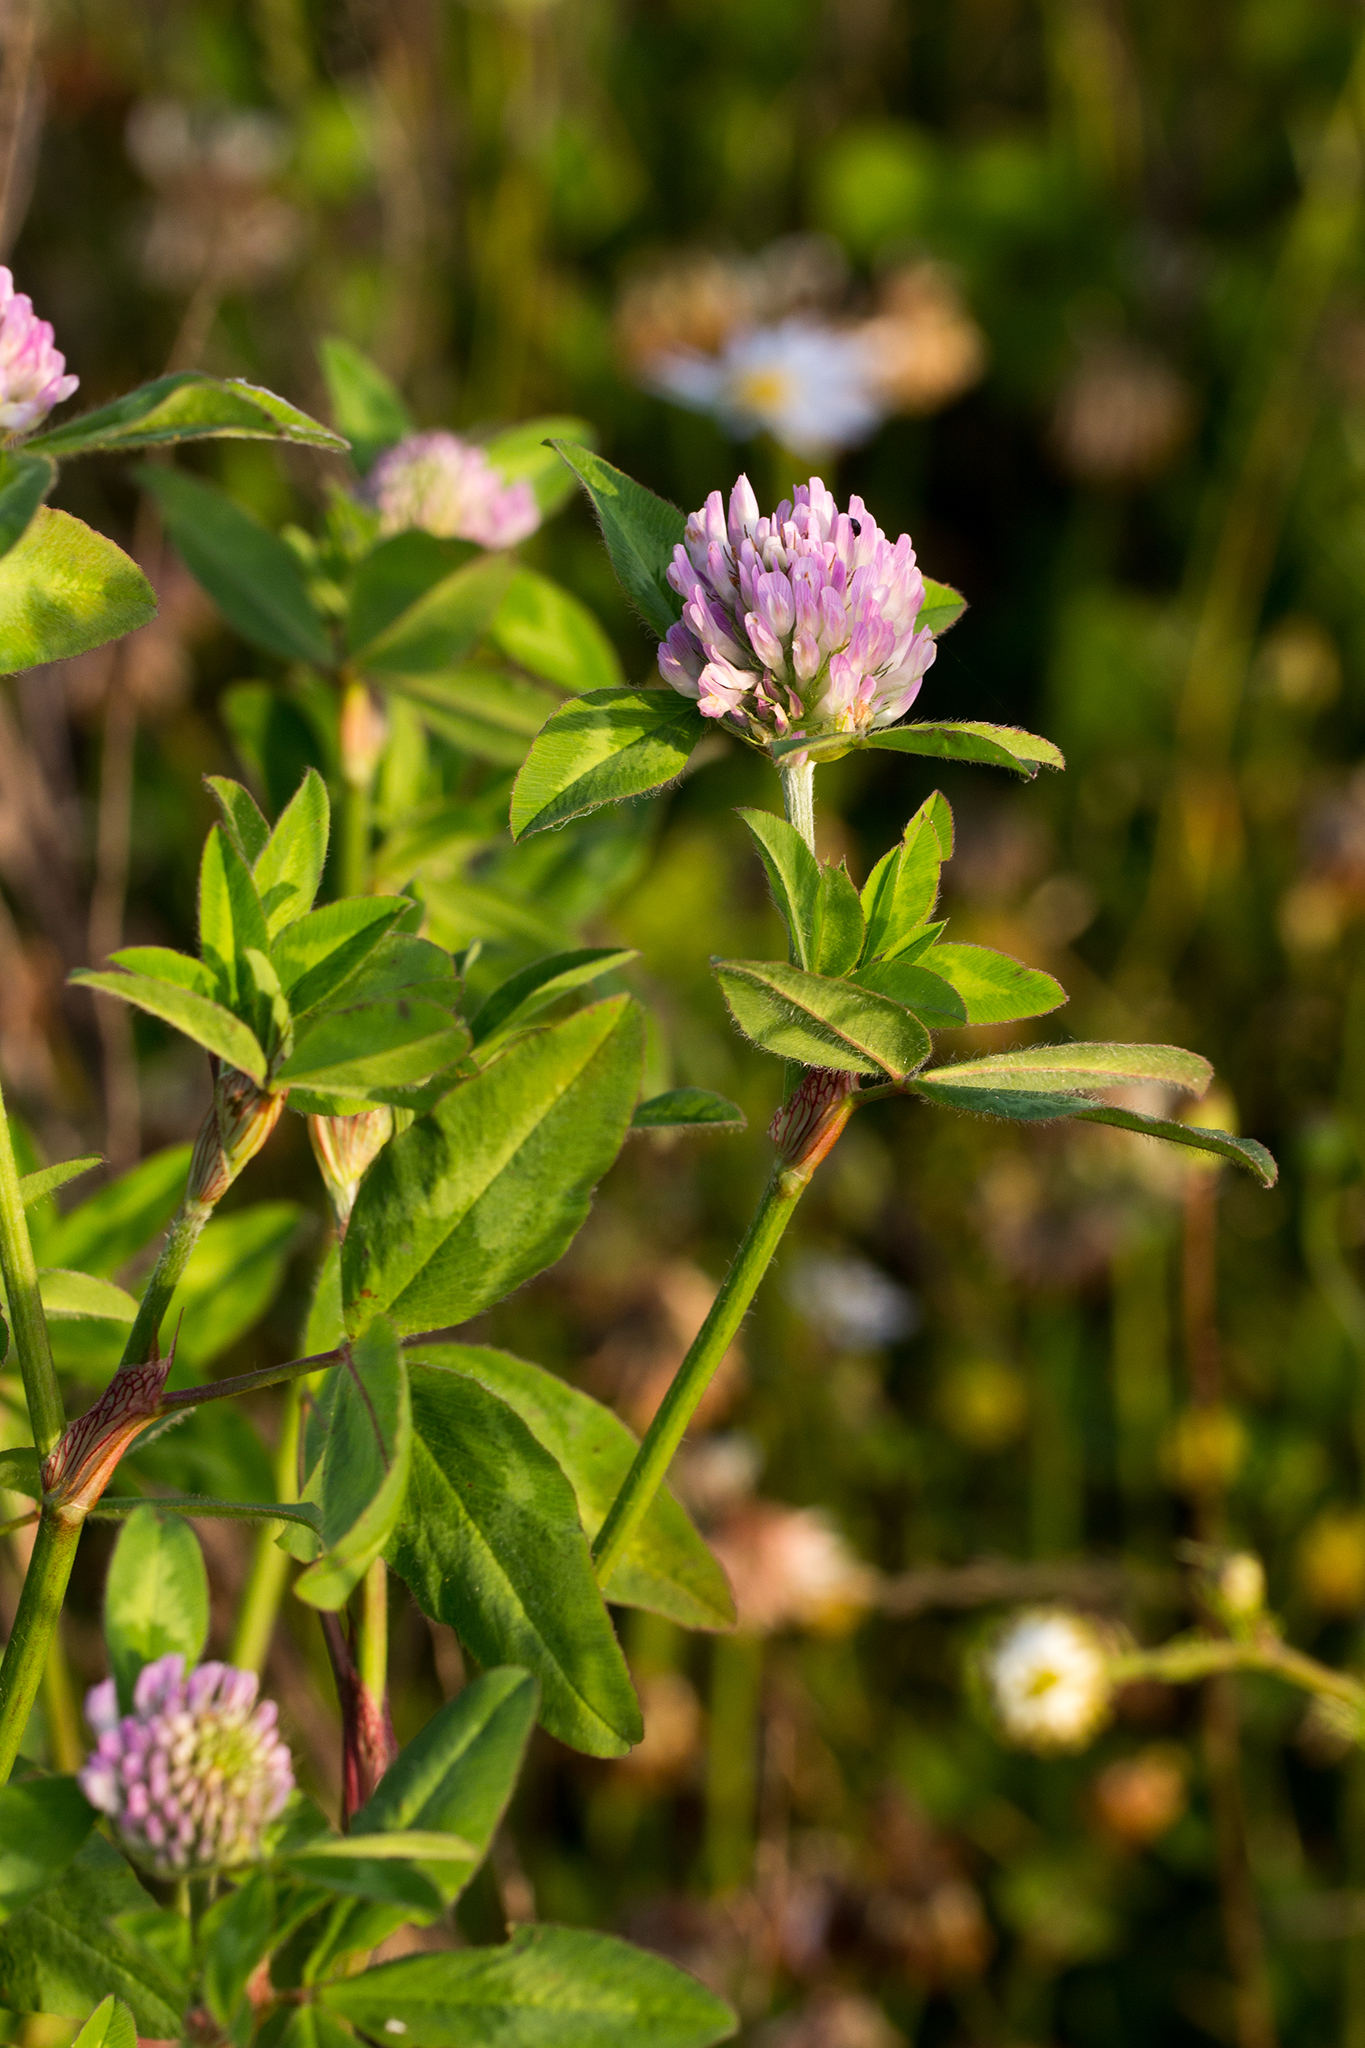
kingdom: Plantae
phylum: Tracheophyta
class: Magnoliopsida
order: Fabales
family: Fabaceae
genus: Trifolium
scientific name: Trifolium medium
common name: Zigzag clover
